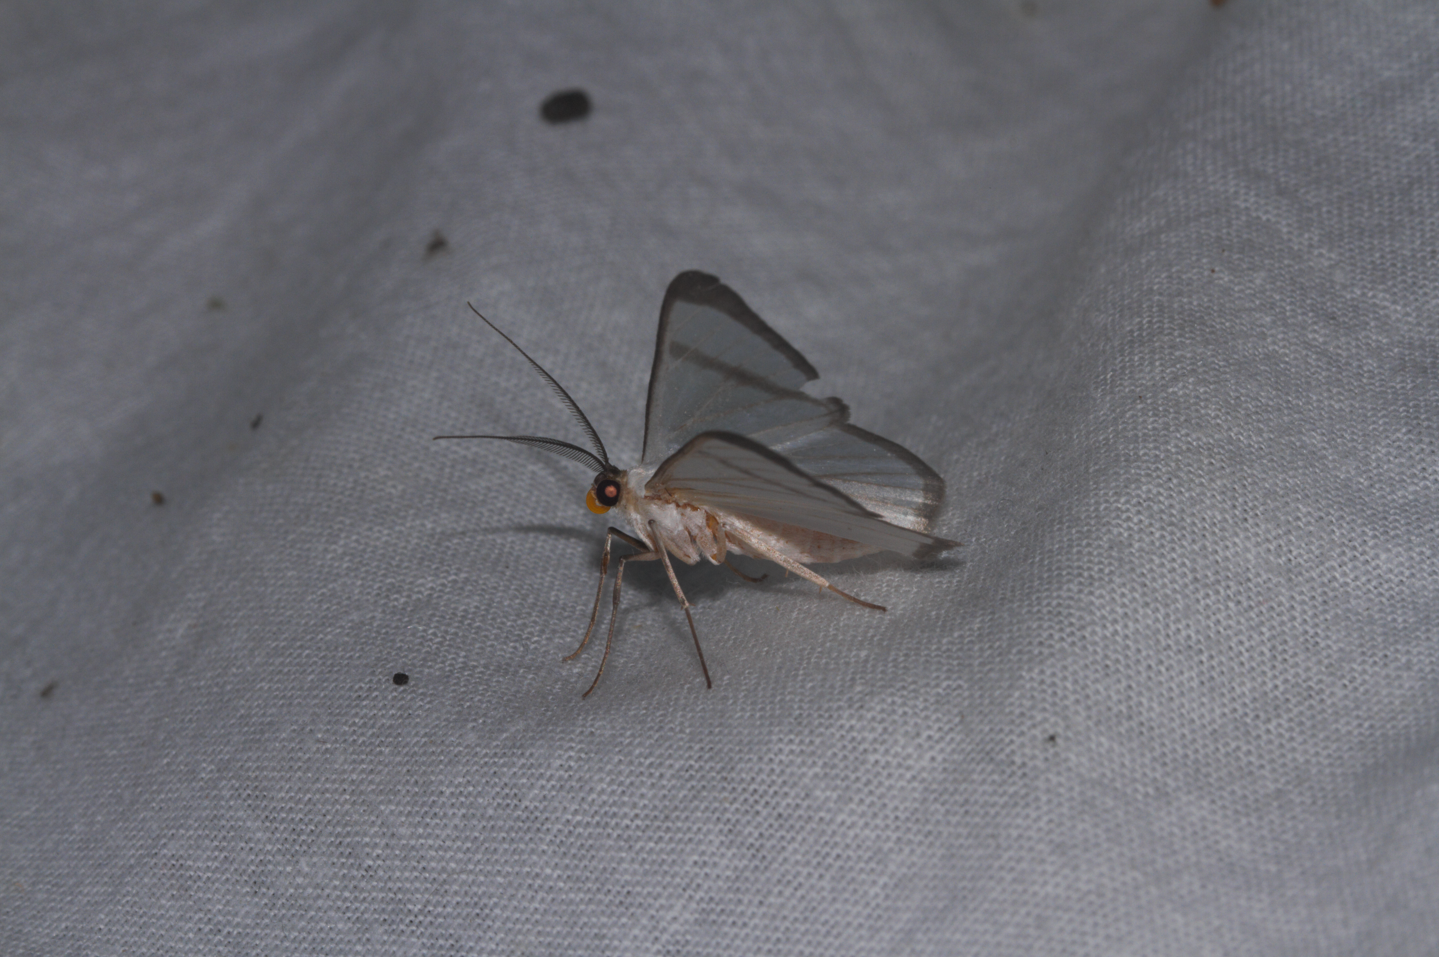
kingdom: Animalia
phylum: Arthropoda
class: Insecta
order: Lepidoptera
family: Geometridae
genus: Perigramma
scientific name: Perigramma
